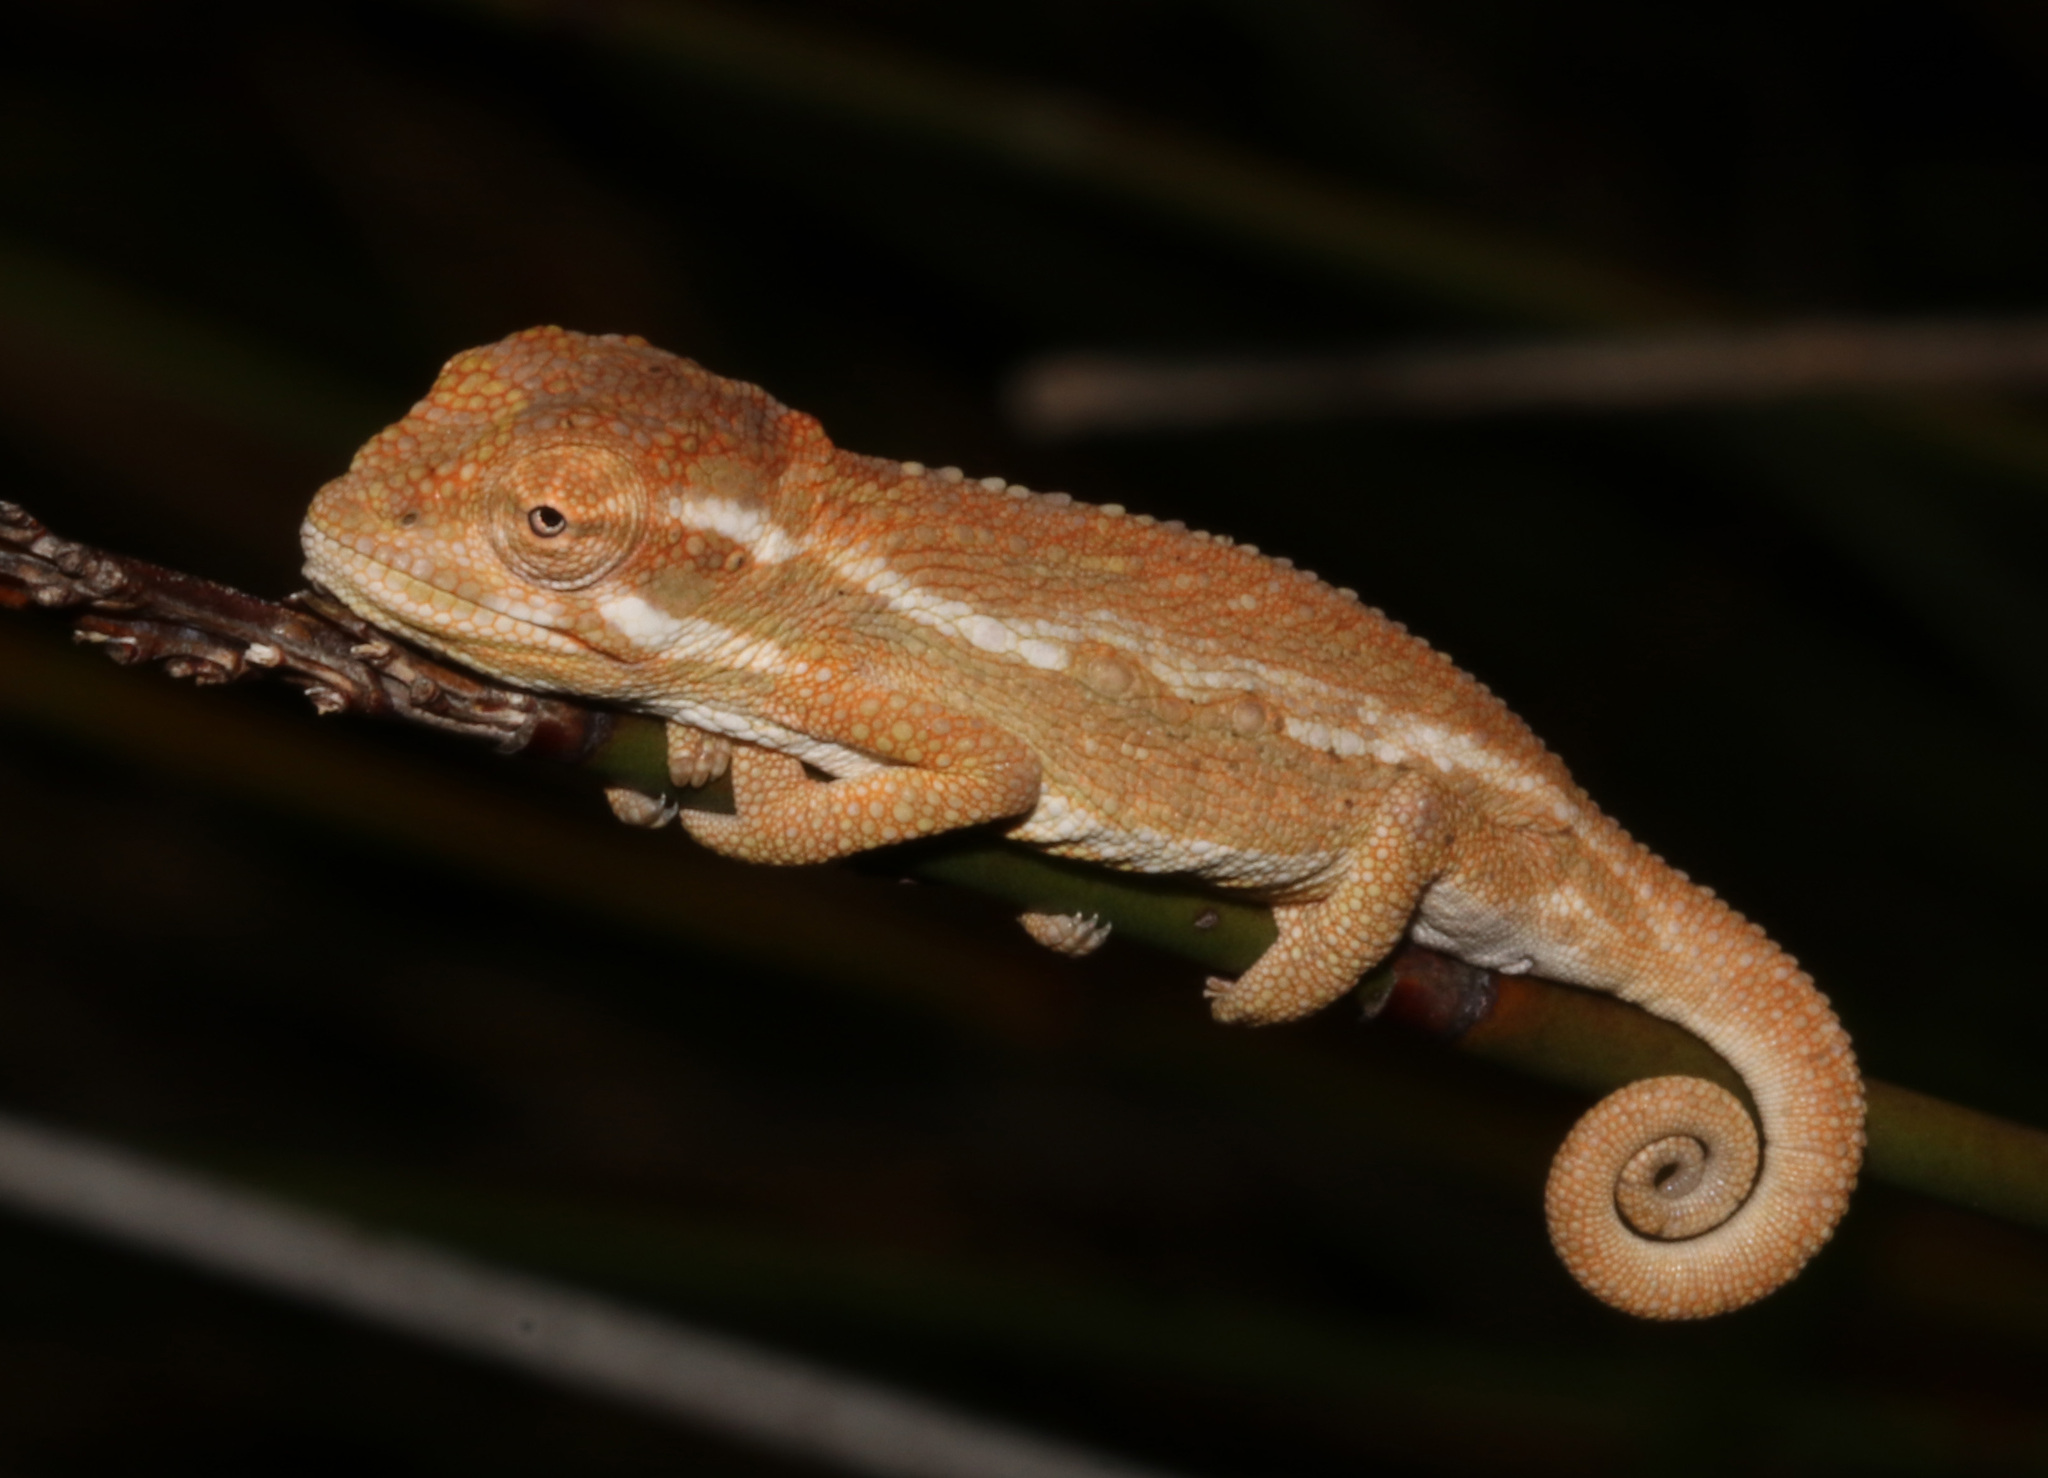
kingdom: Animalia
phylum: Chordata
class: Squamata
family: Chamaeleonidae
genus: Bradypodion
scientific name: Bradypodion pumilum
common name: Cape dwarf chameleon
